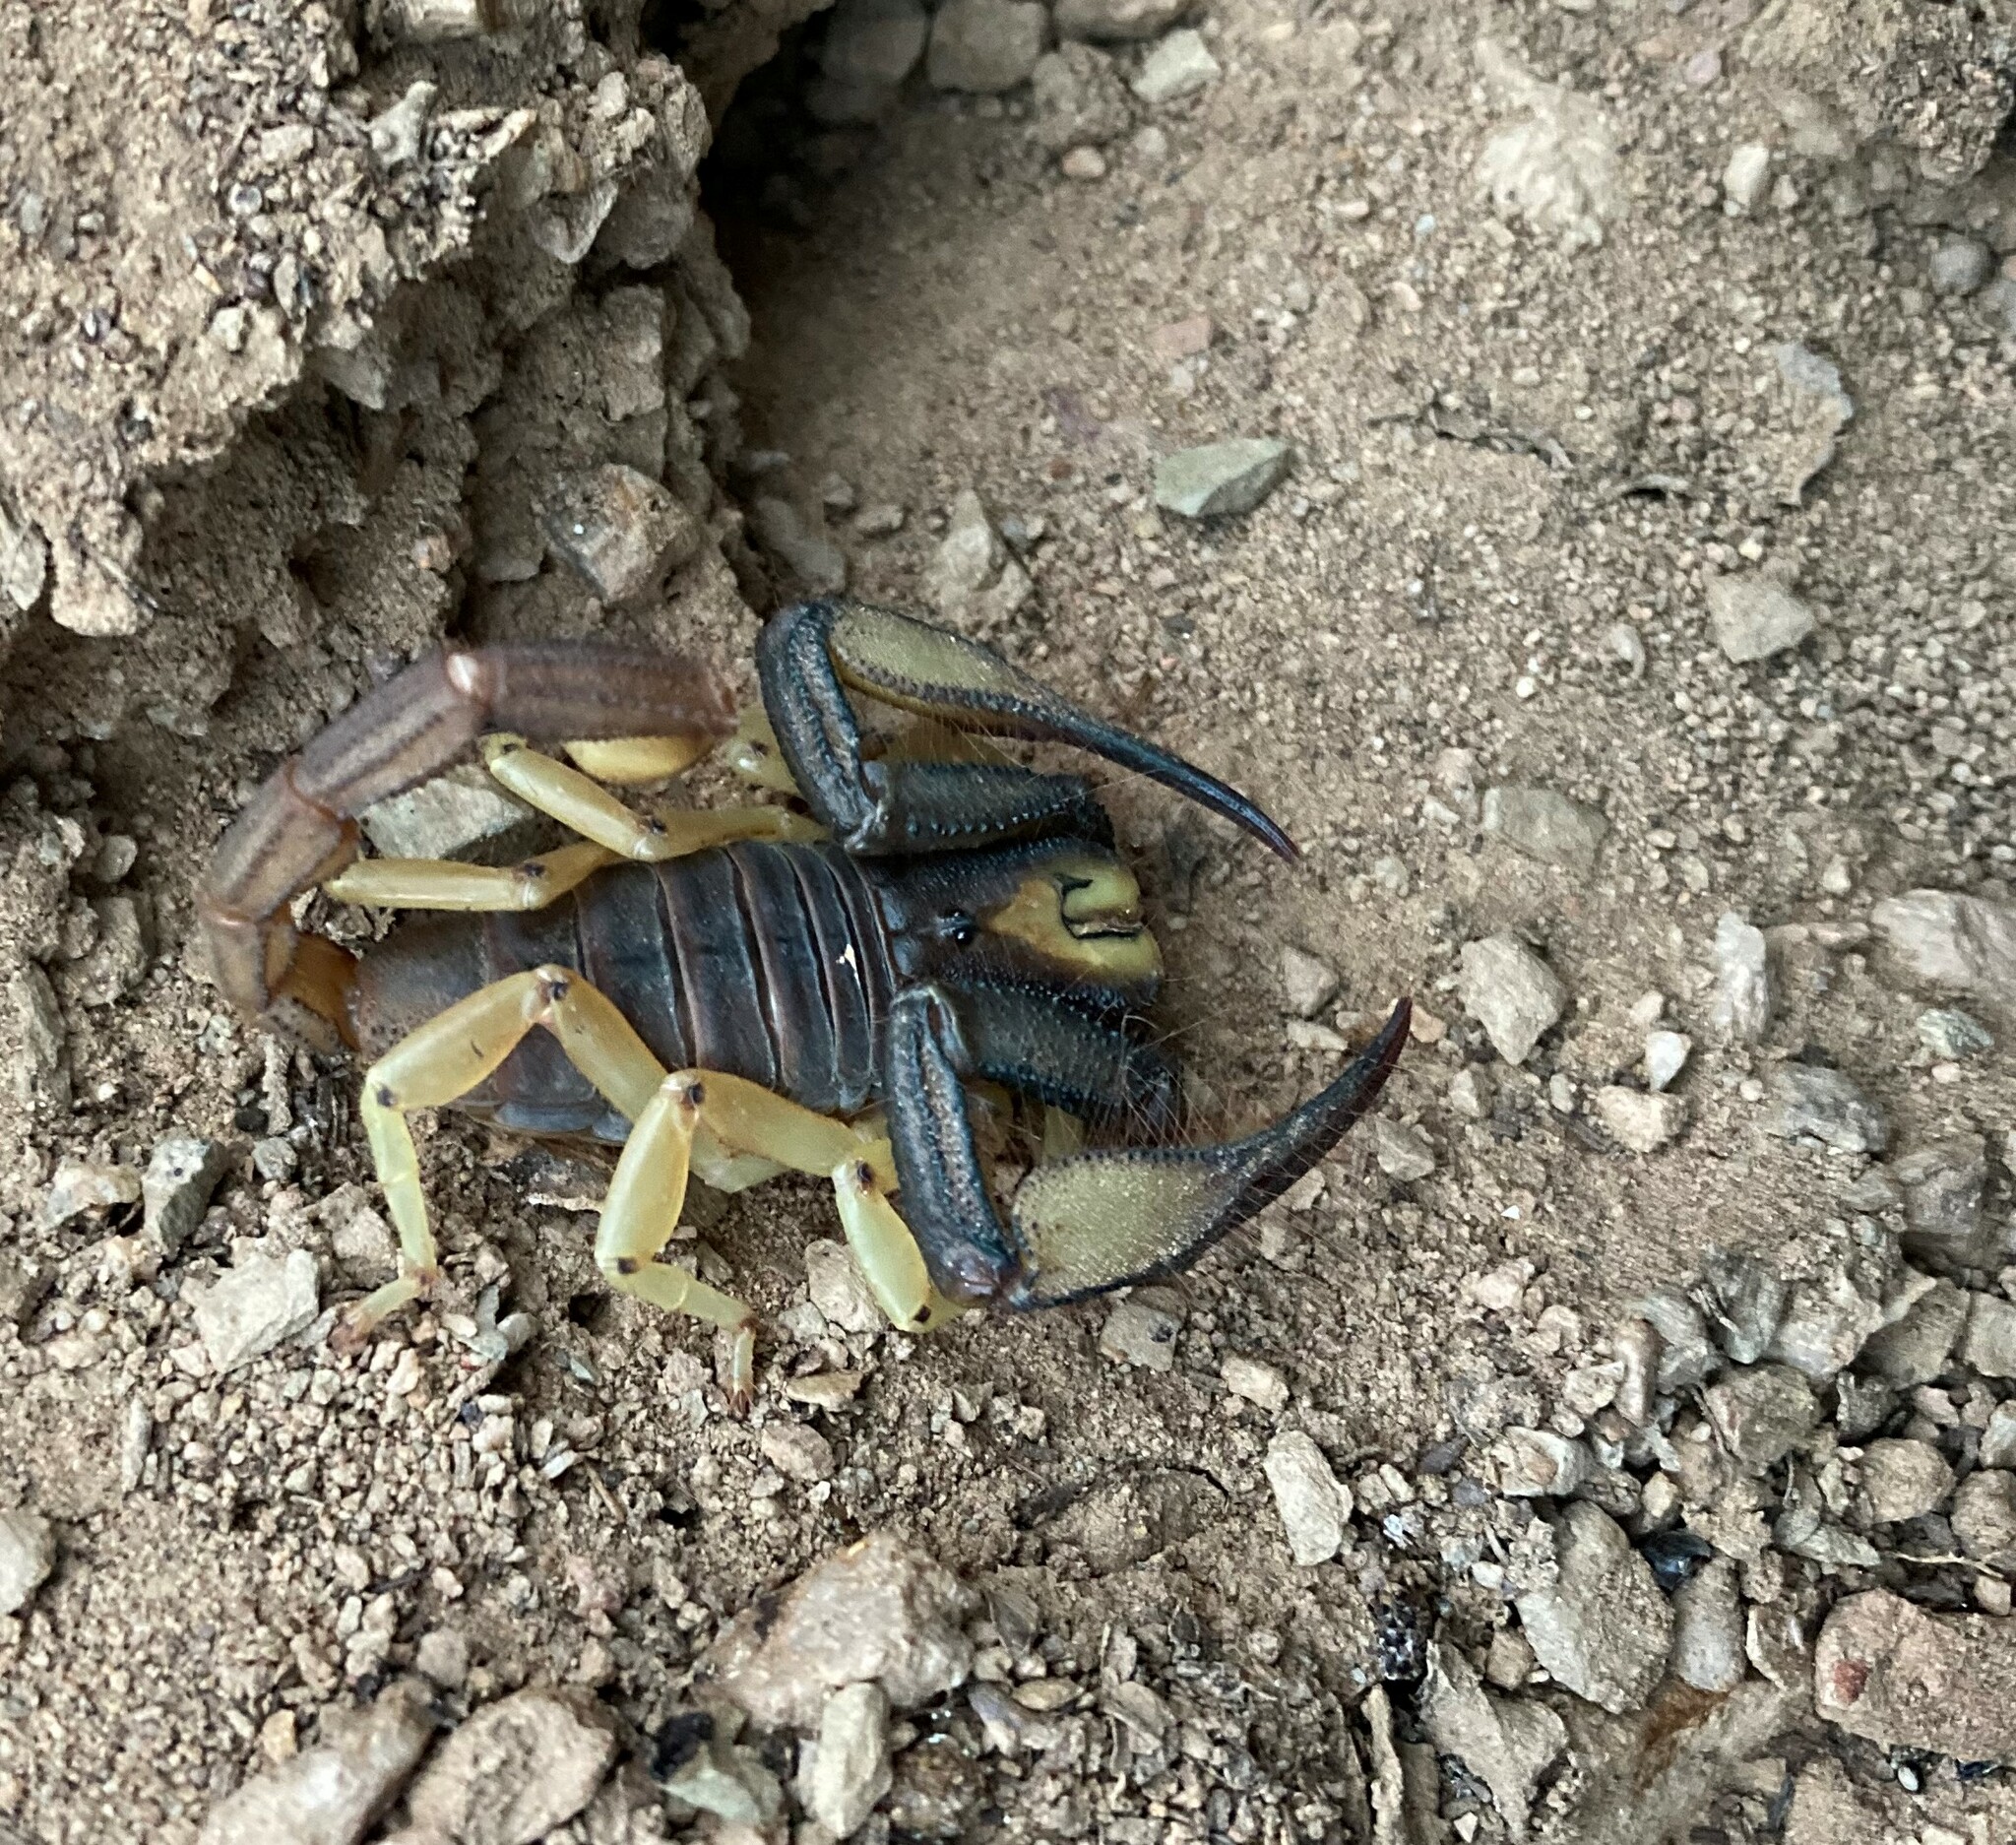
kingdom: Animalia
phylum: Arthropoda
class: Arachnida
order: Scorpiones
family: Scorpionidae
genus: Opistophthalmus
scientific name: Opistophthalmus karrooensis
